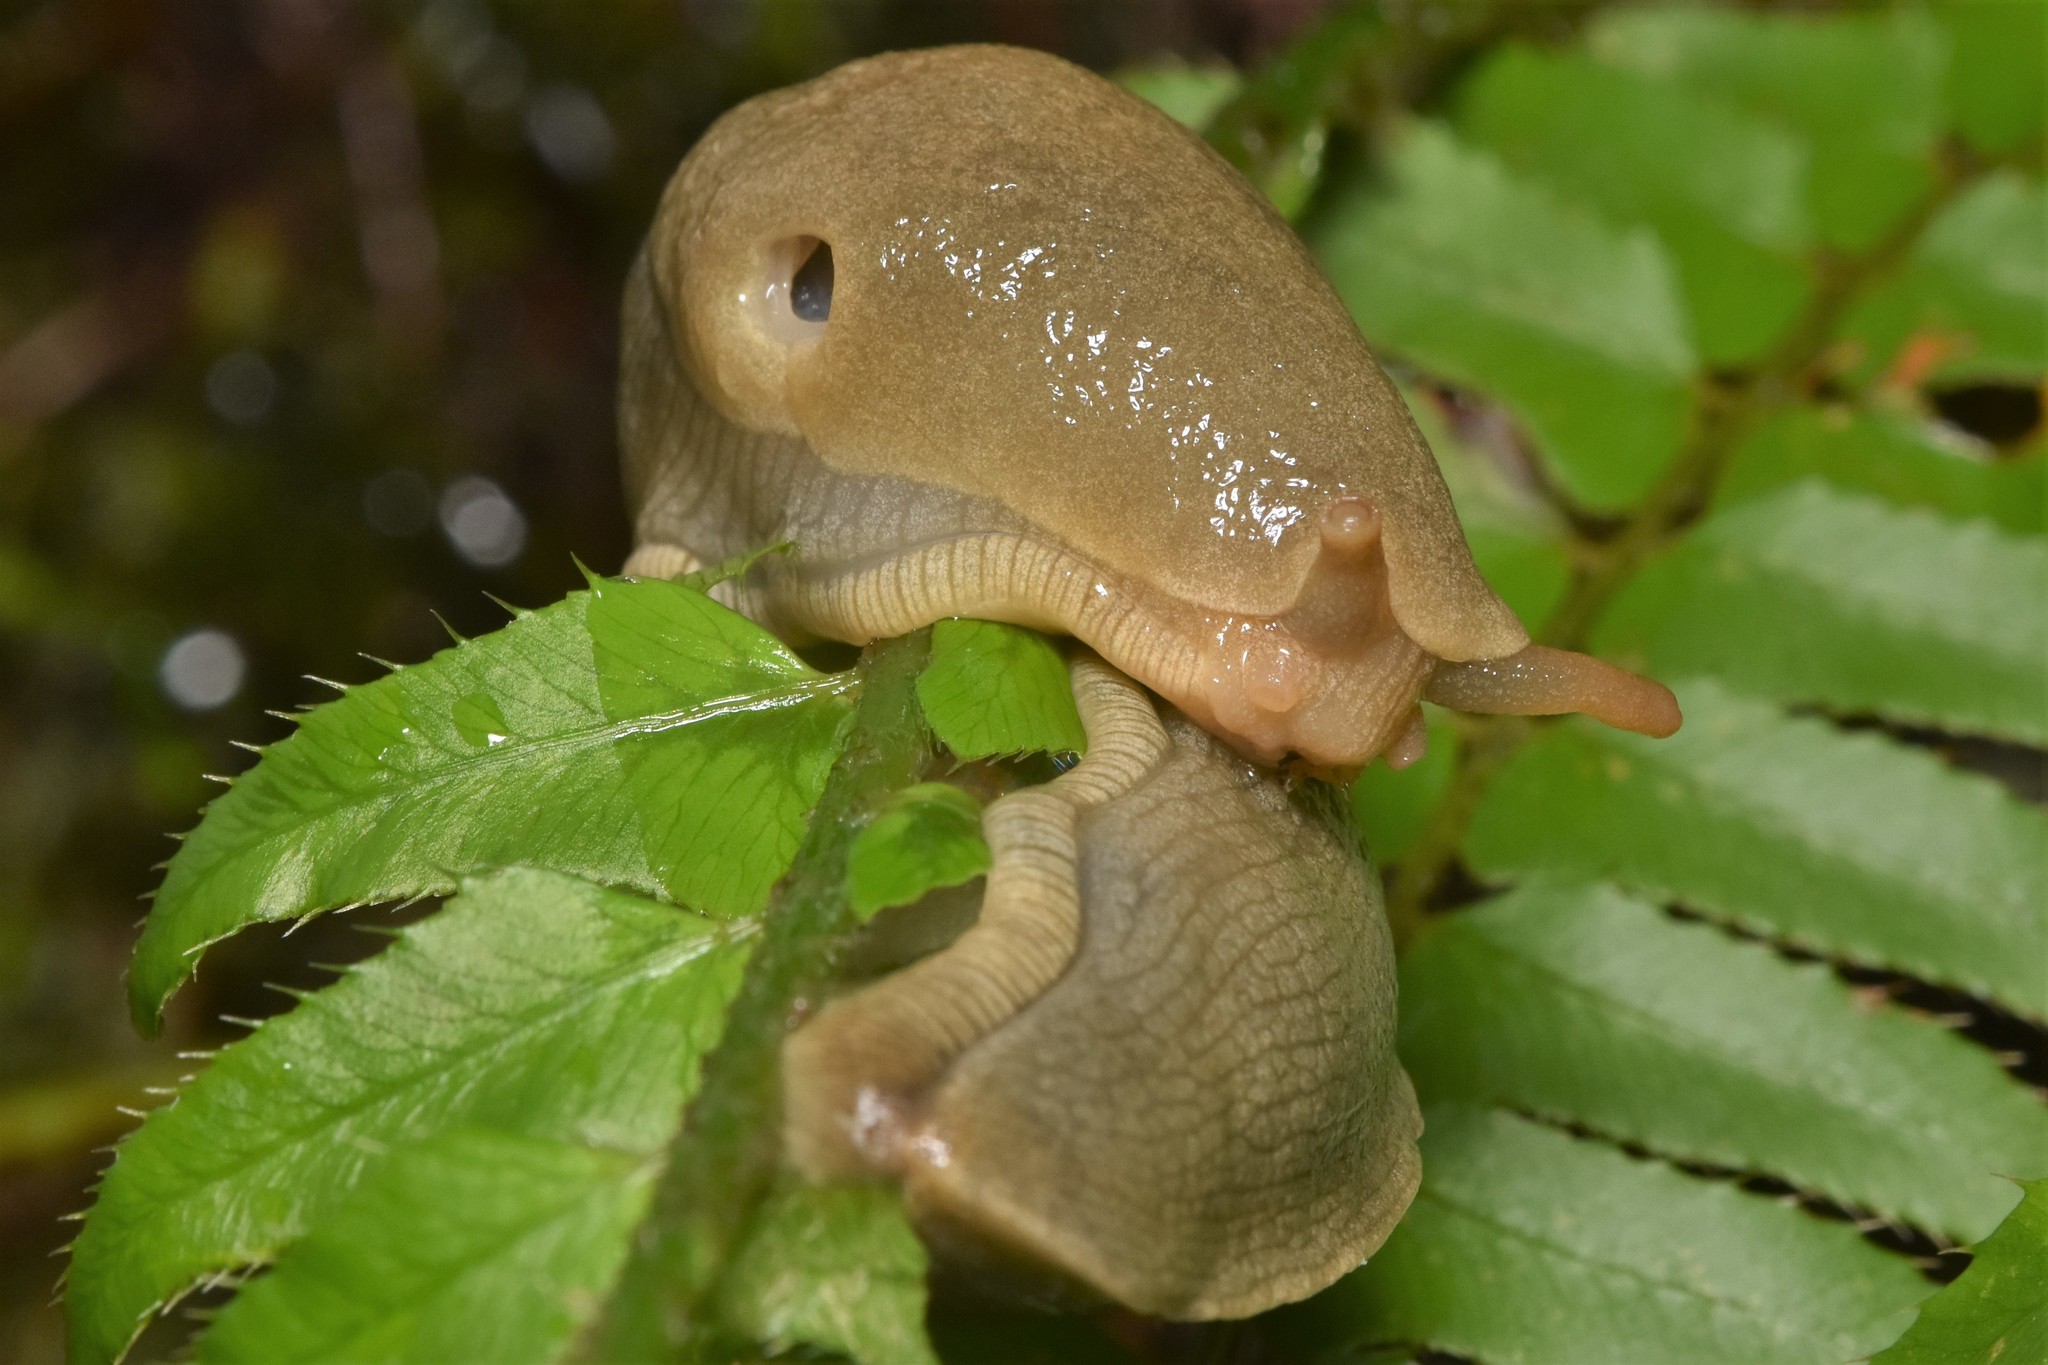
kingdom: Animalia
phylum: Mollusca
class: Gastropoda
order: Stylommatophora
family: Ariolimacidae
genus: Ariolimax
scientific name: Ariolimax columbianus
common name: Pacific banana slug
